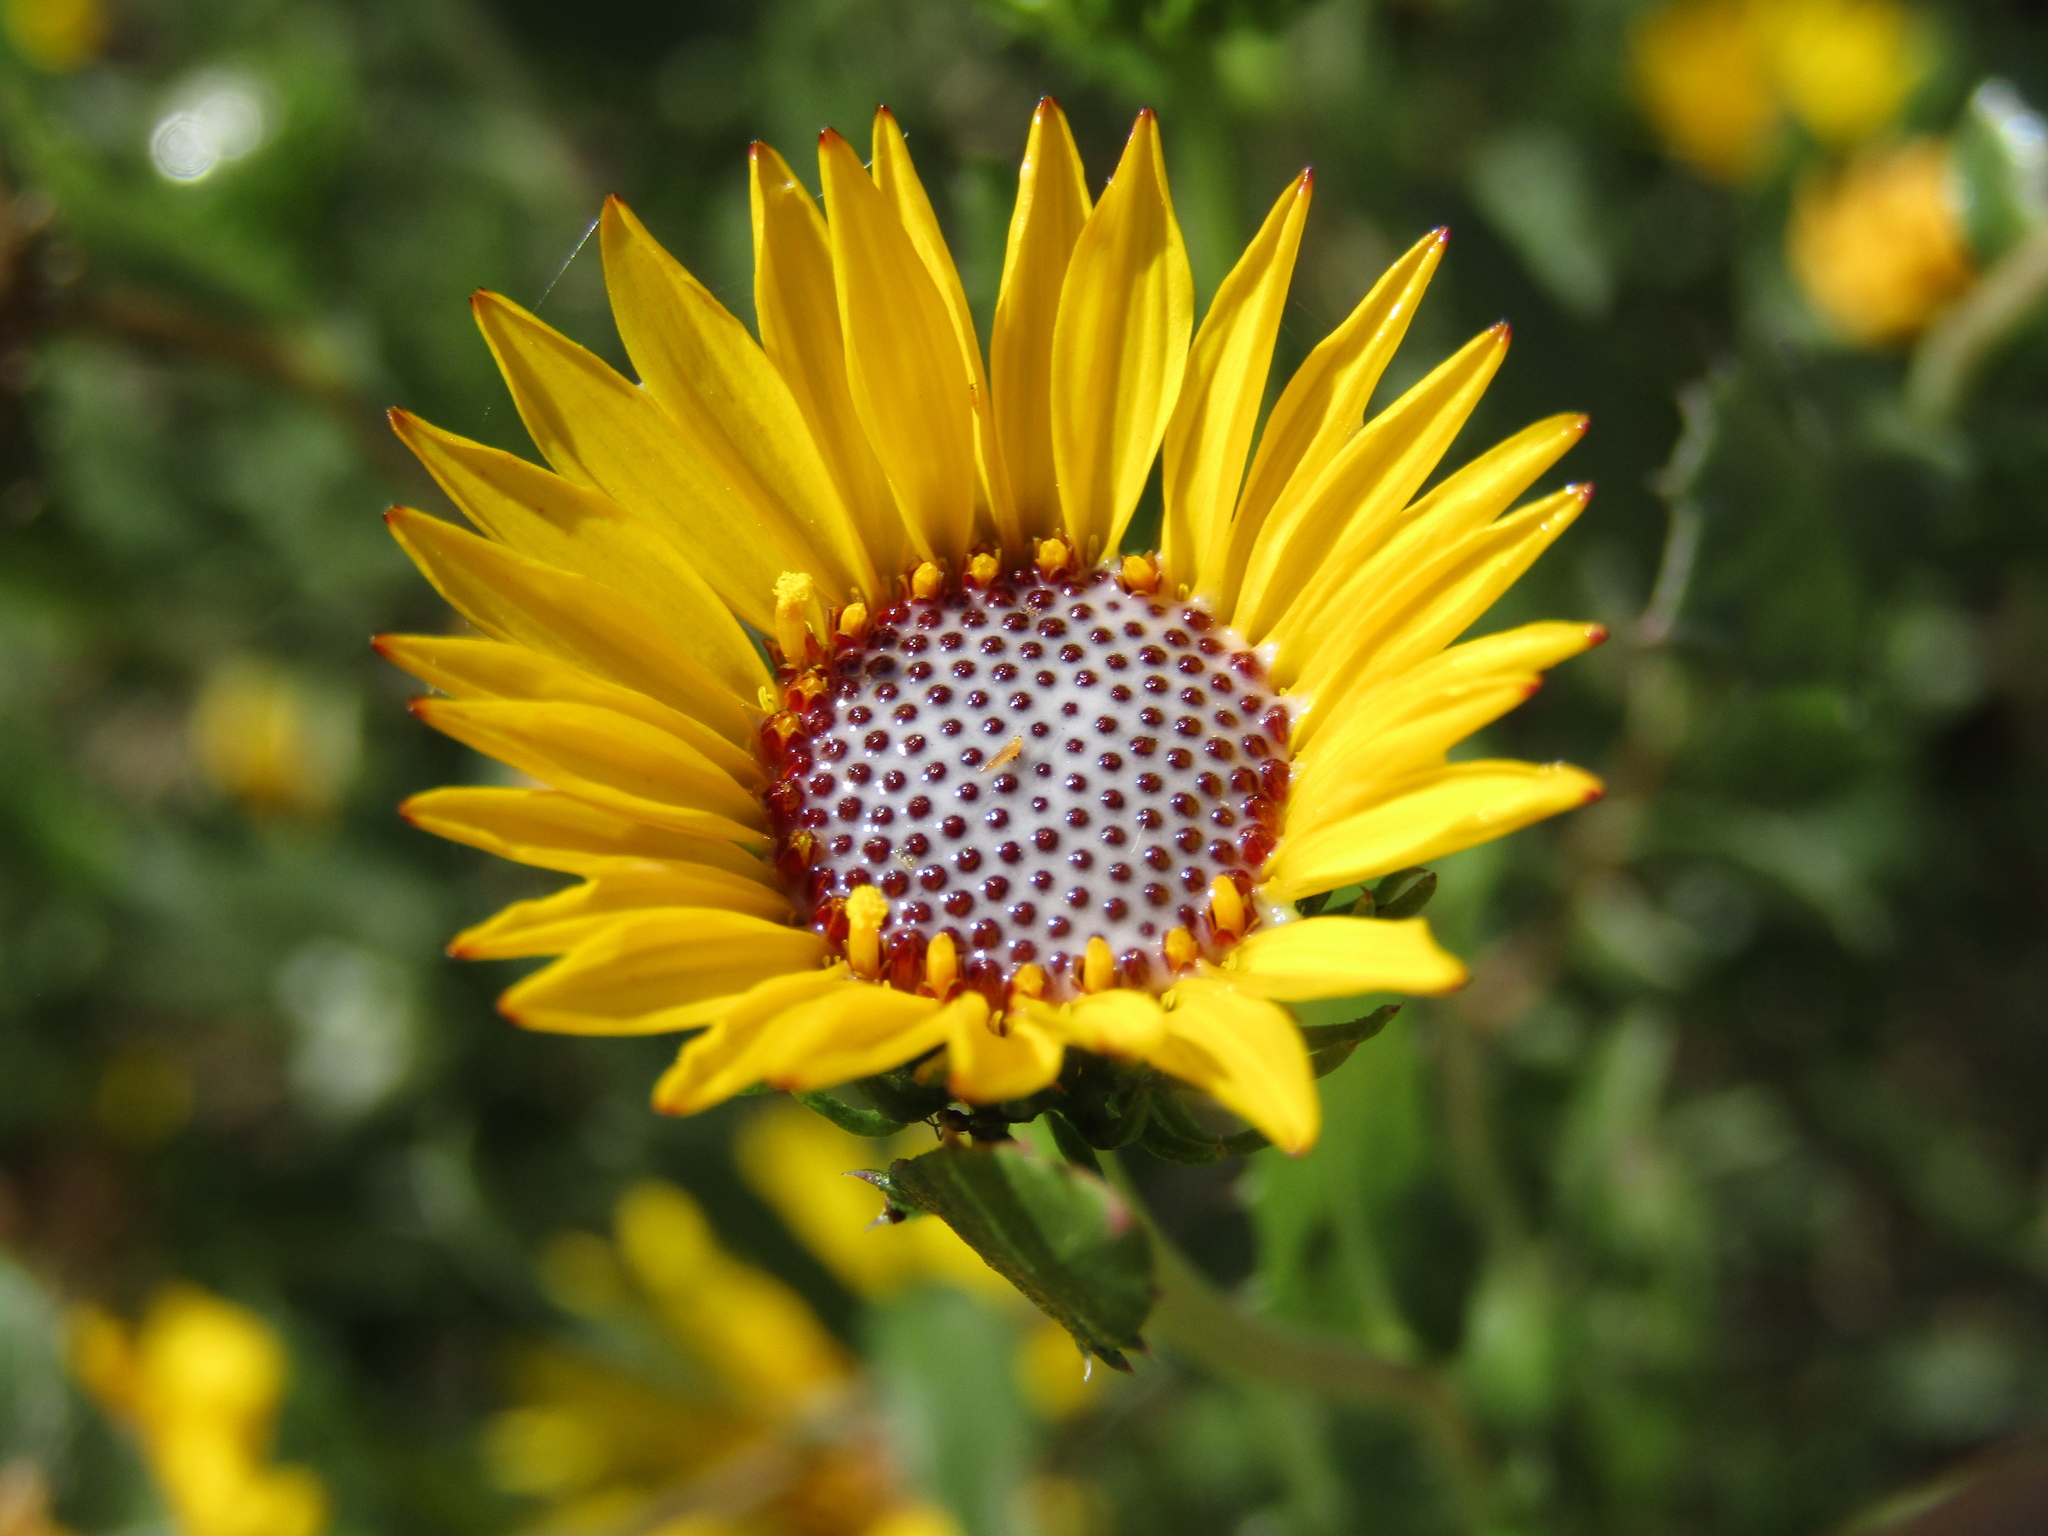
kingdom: Plantae
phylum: Tracheophyta
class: Magnoliopsida
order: Asterales
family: Asteraceae
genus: Grindelia
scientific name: Grindelia pulchella
